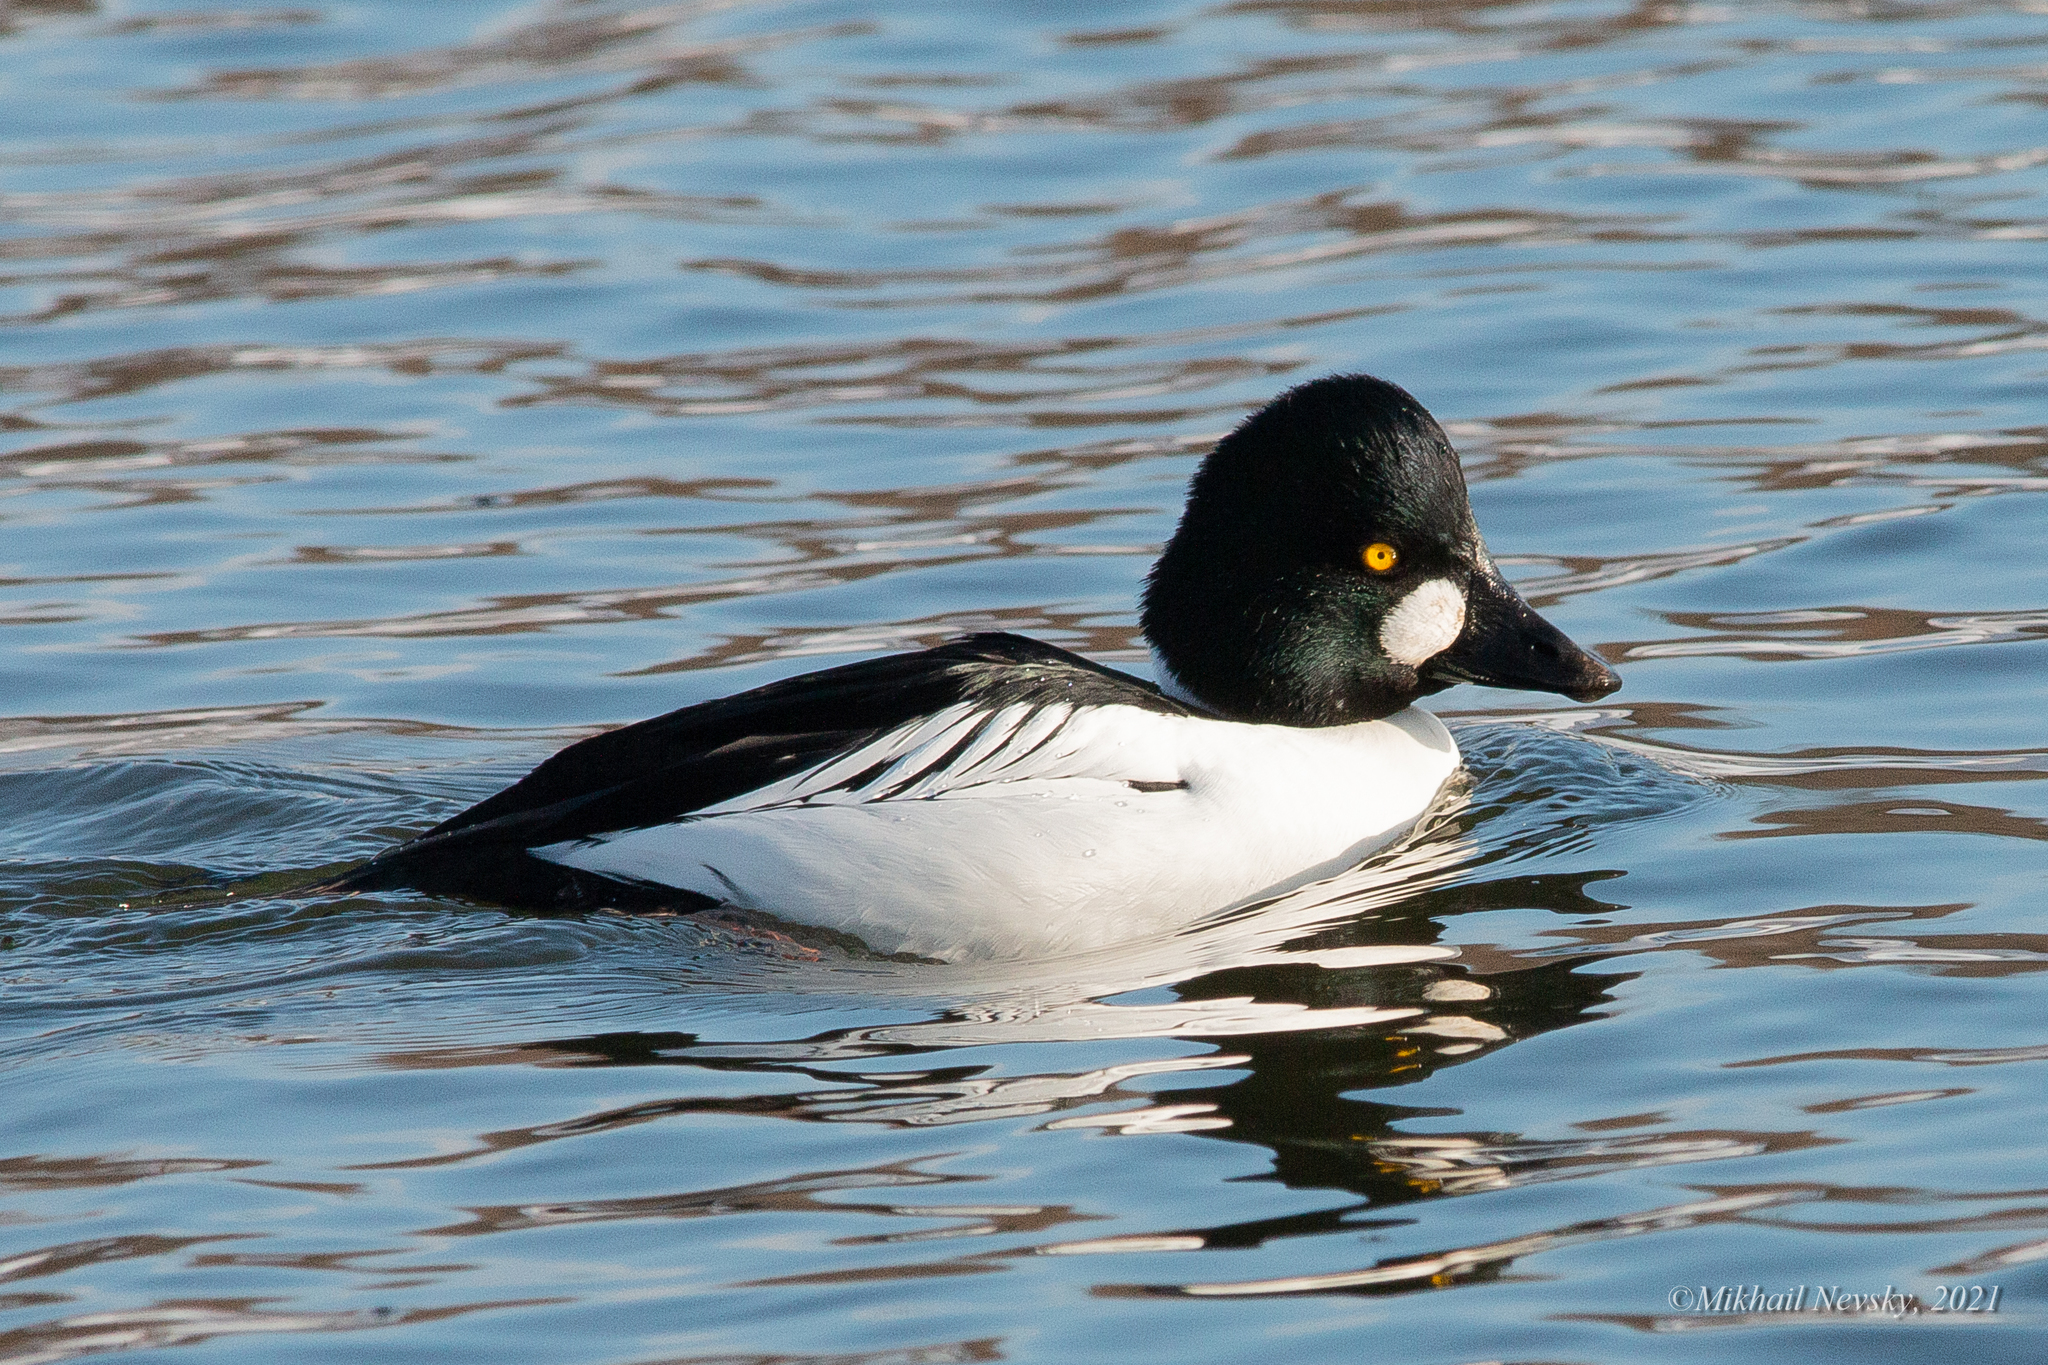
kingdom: Animalia
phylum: Chordata
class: Aves
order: Anseriformes
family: Anatidae
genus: Bucephala
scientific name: Bucephala clangula
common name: Common goldeneye
